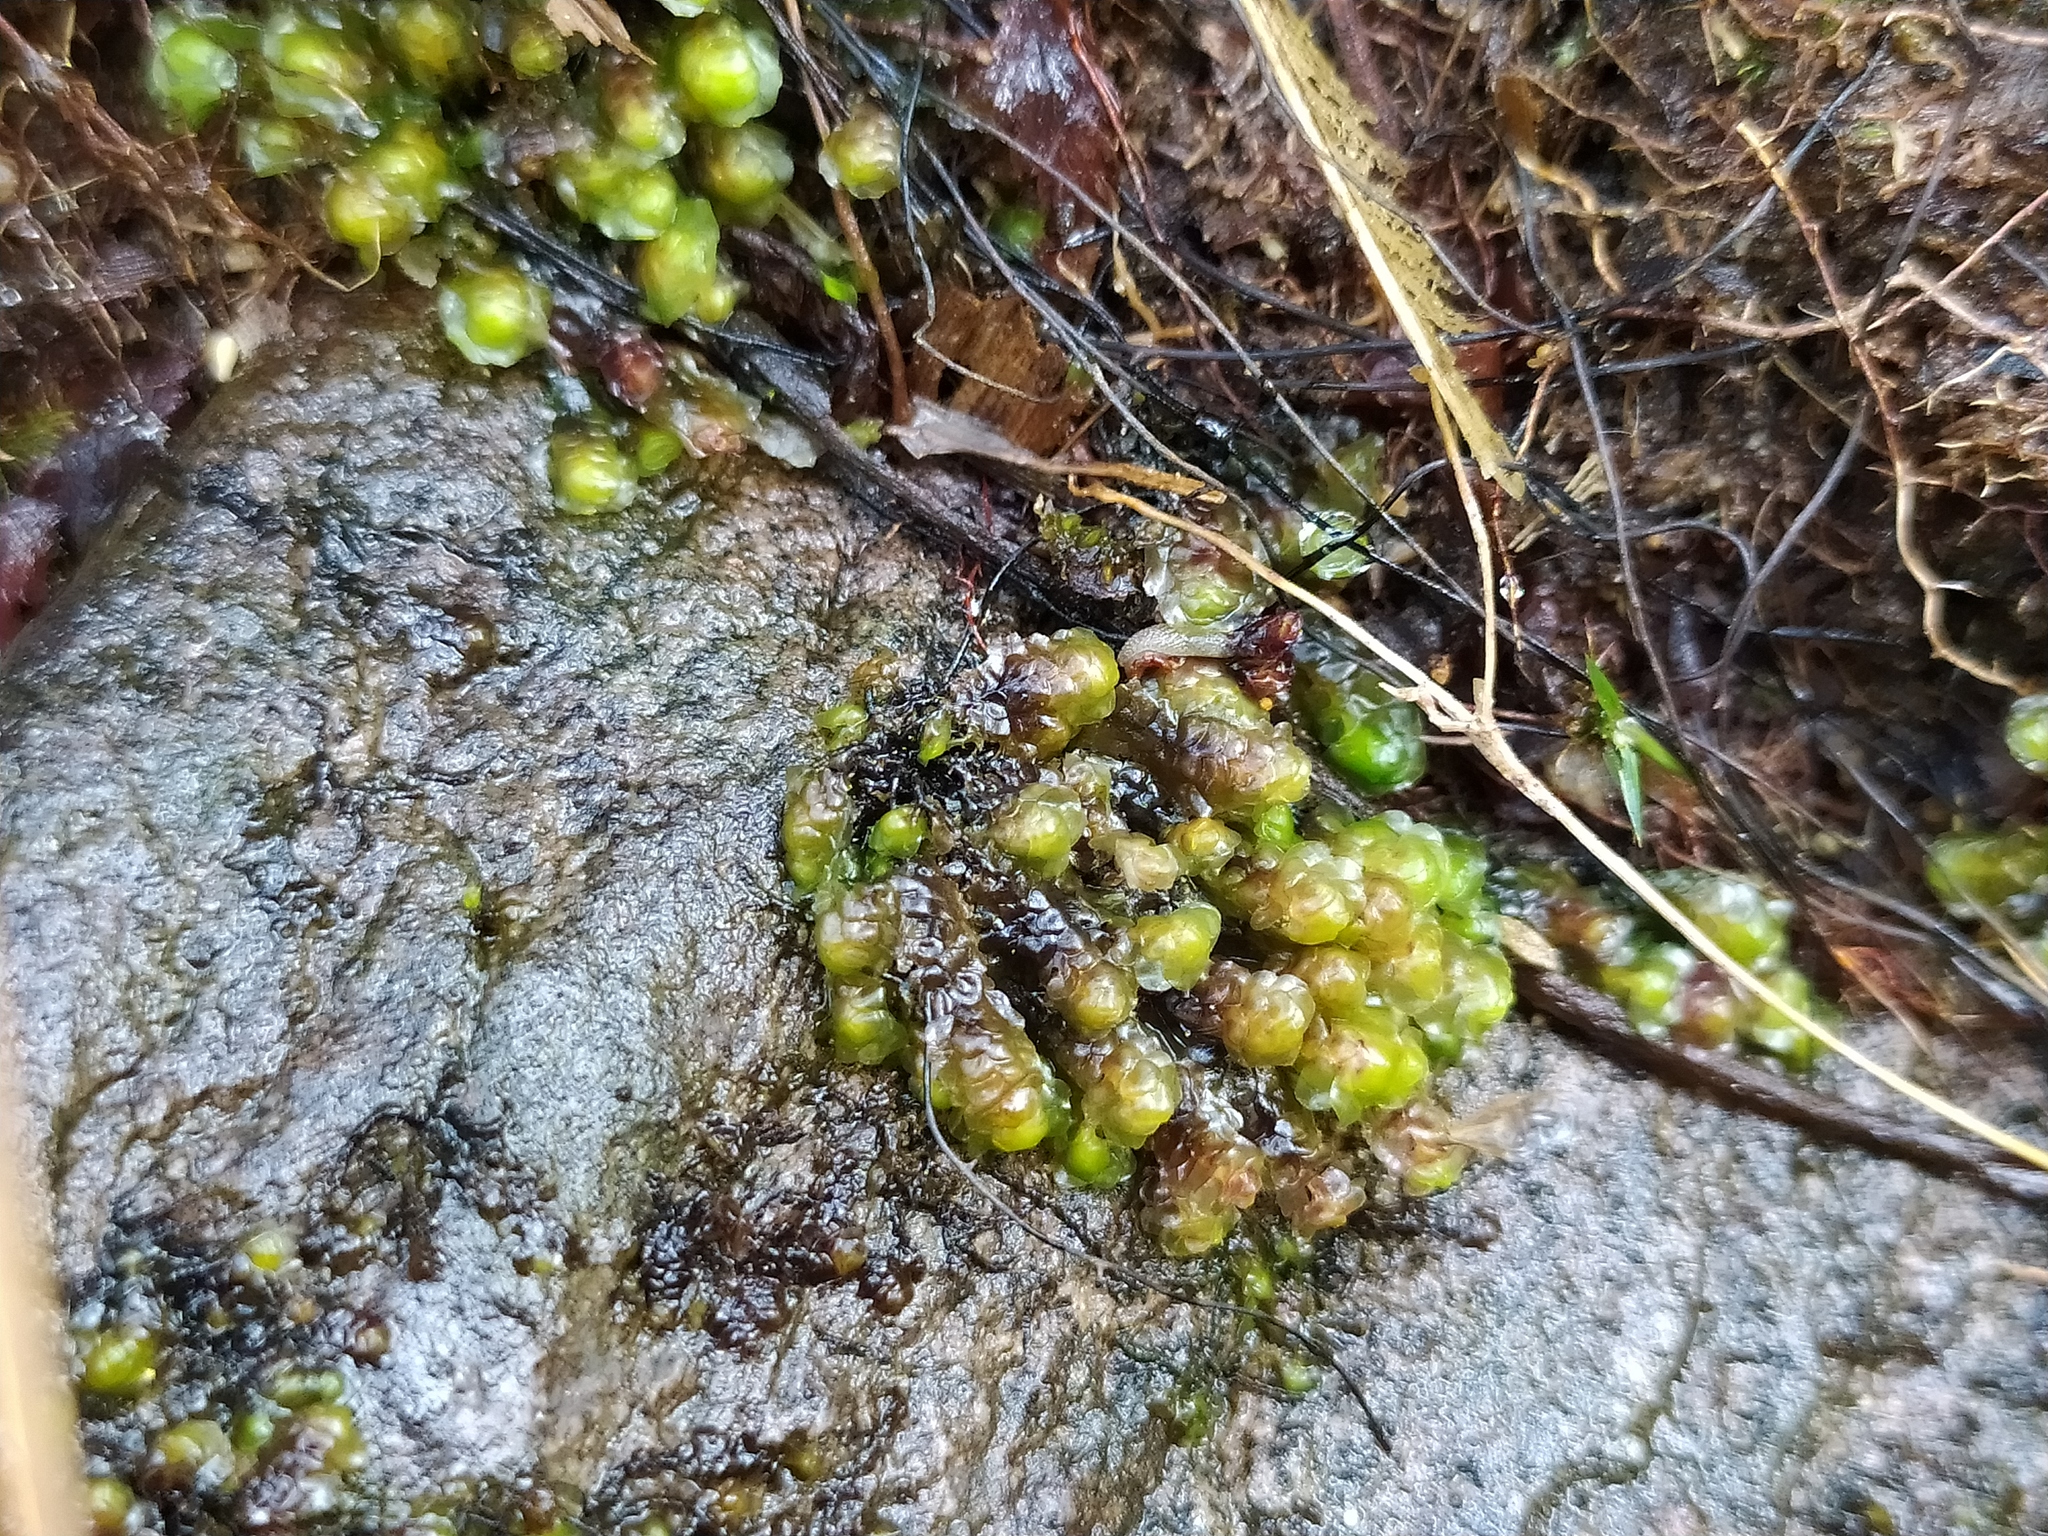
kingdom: Plantae
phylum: Marchantiophyta
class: Jungermanniopsida
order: Jungermanniales
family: Scapaniaceae
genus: Scapania
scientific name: Scapania undulata
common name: Water earwort
